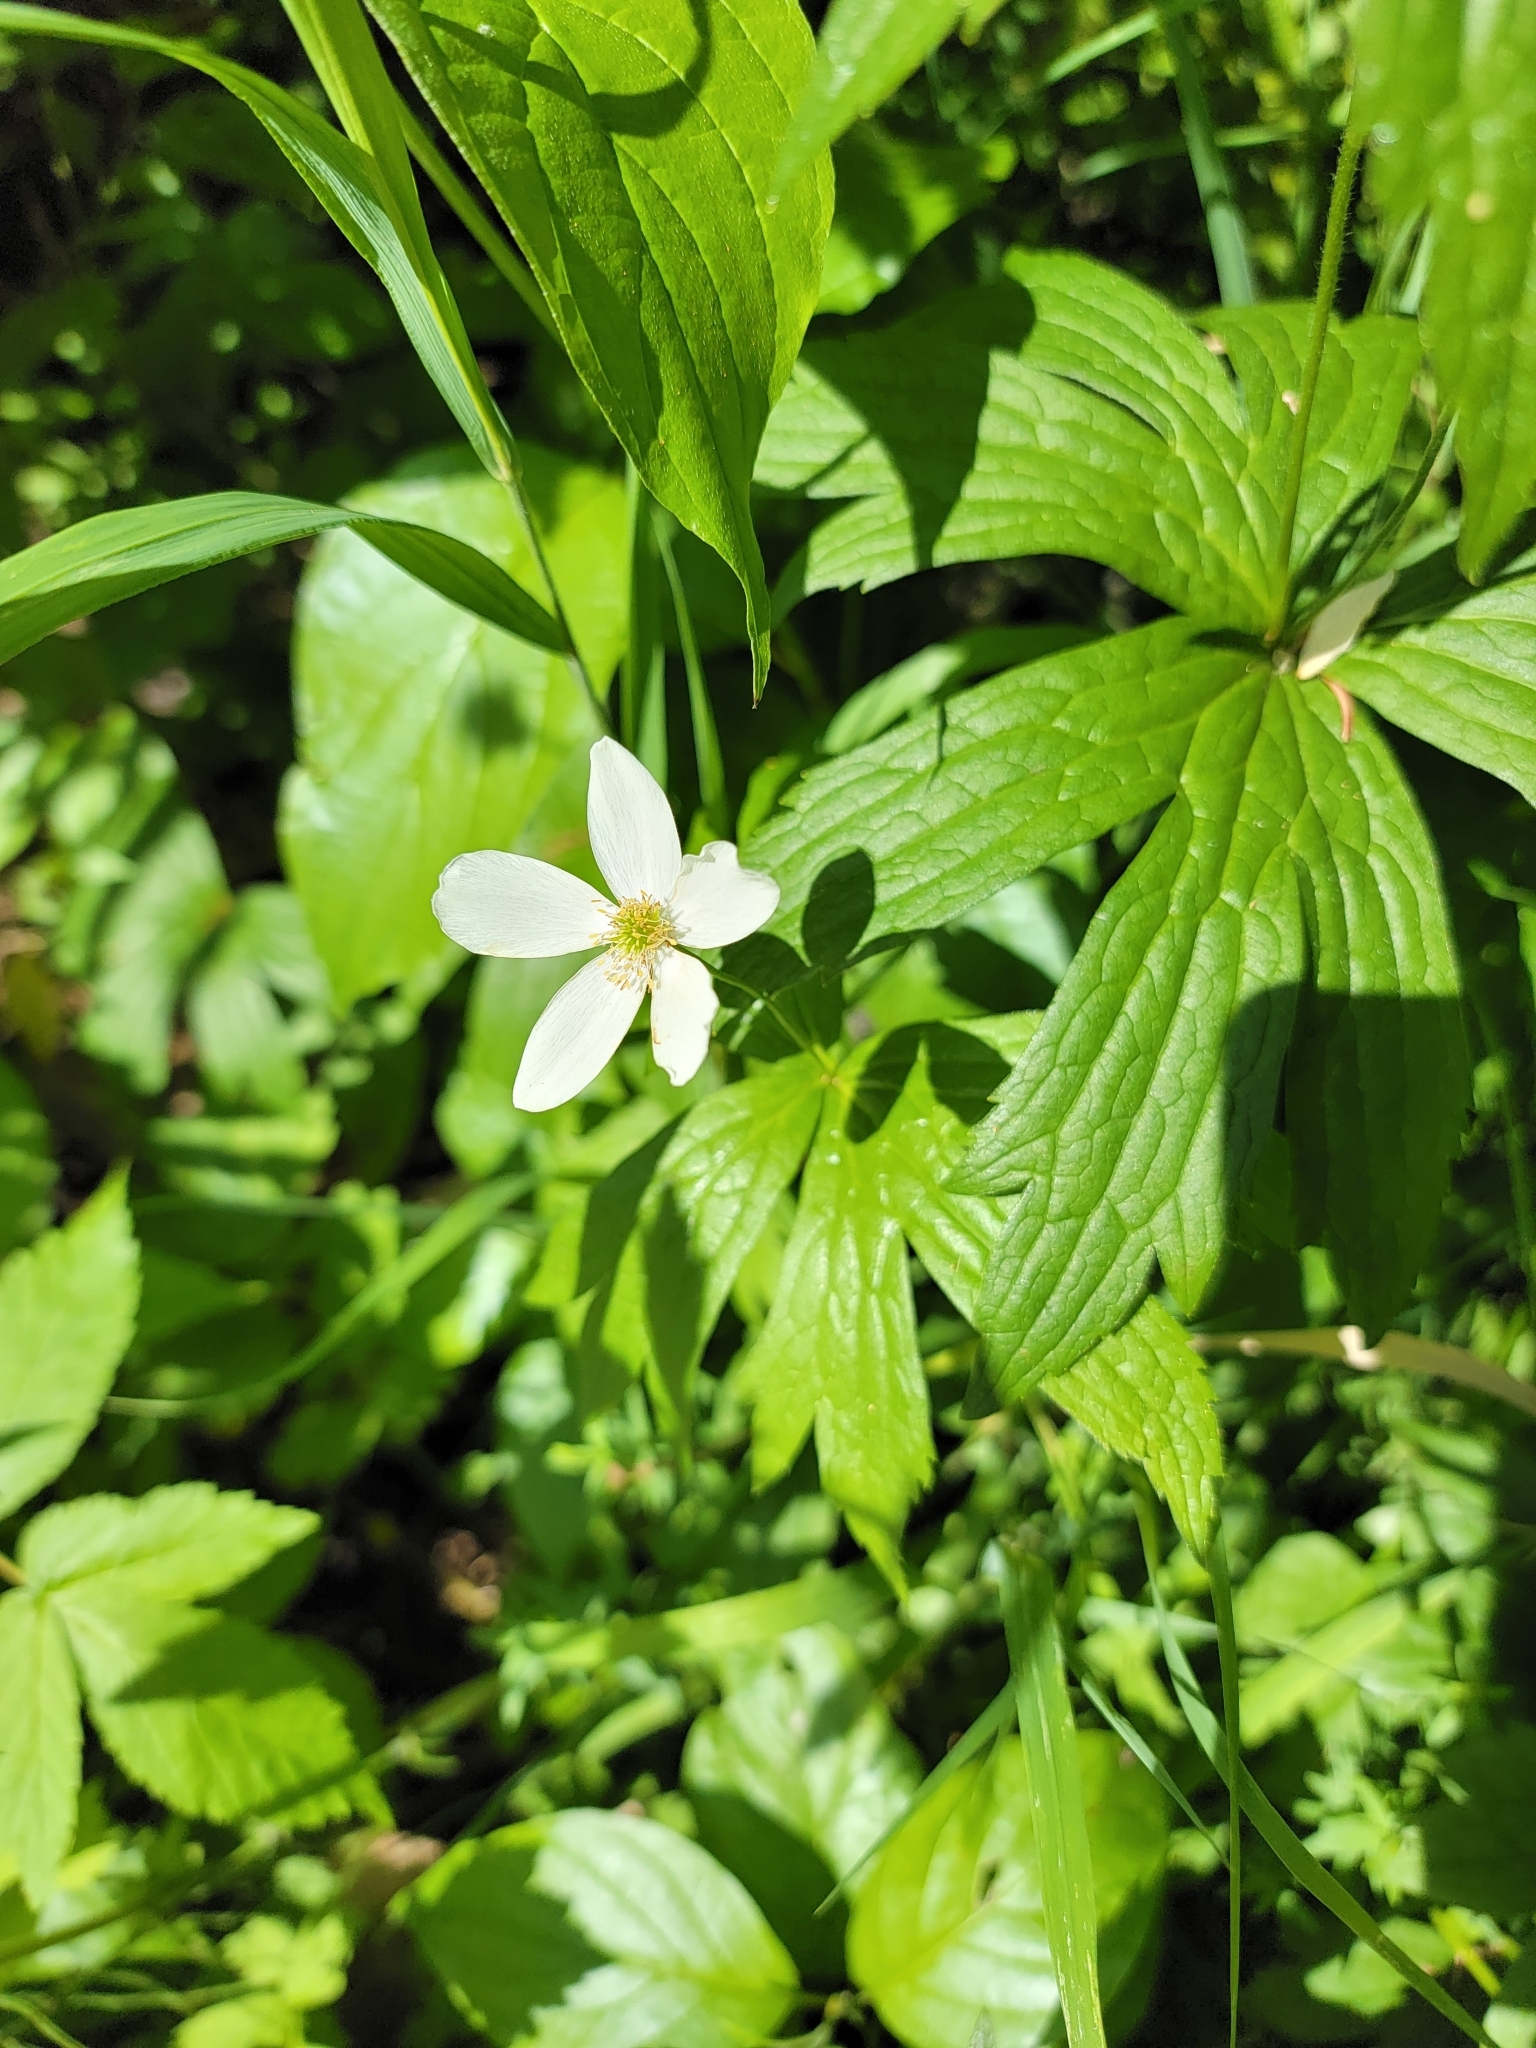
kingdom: Plantae
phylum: Tracheophyta
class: Magnoliopsida
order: Ranunculales
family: Ranunculaceae
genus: Anemonastrum
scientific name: Anemonastrum canadense
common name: Canada anemone
